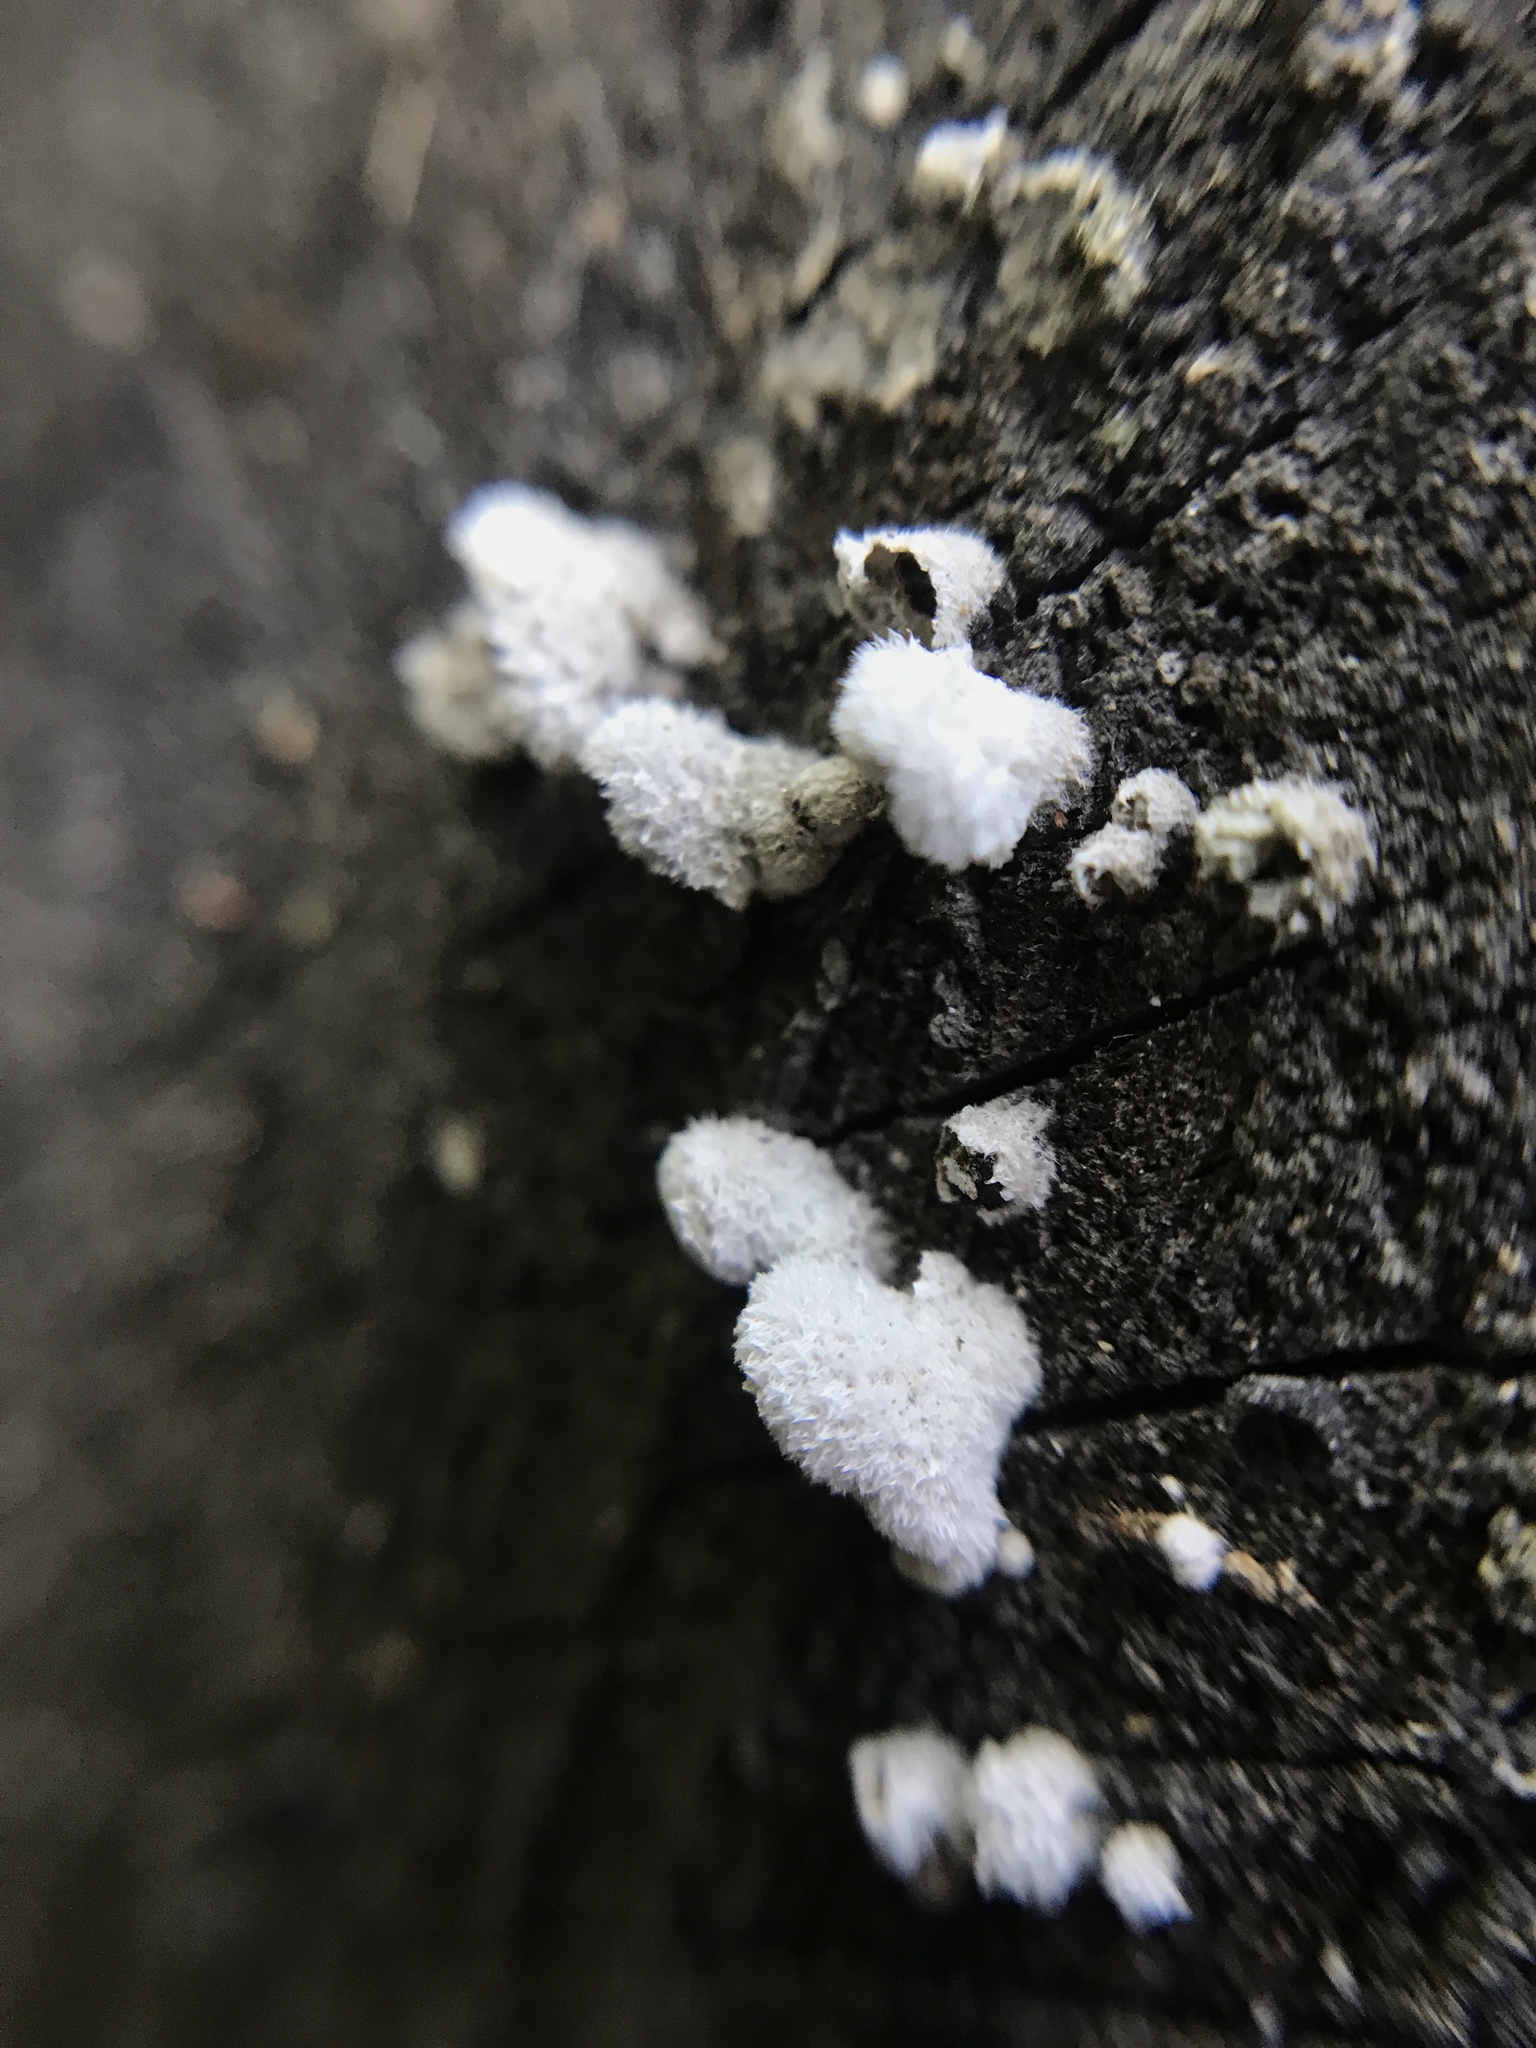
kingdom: Fungi
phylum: Basidiomycota
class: Agaricomycetes
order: Agaricales
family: Schizophyllaceae
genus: Schizophyllum
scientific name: Schizophyllum commune
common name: Common porecrust
